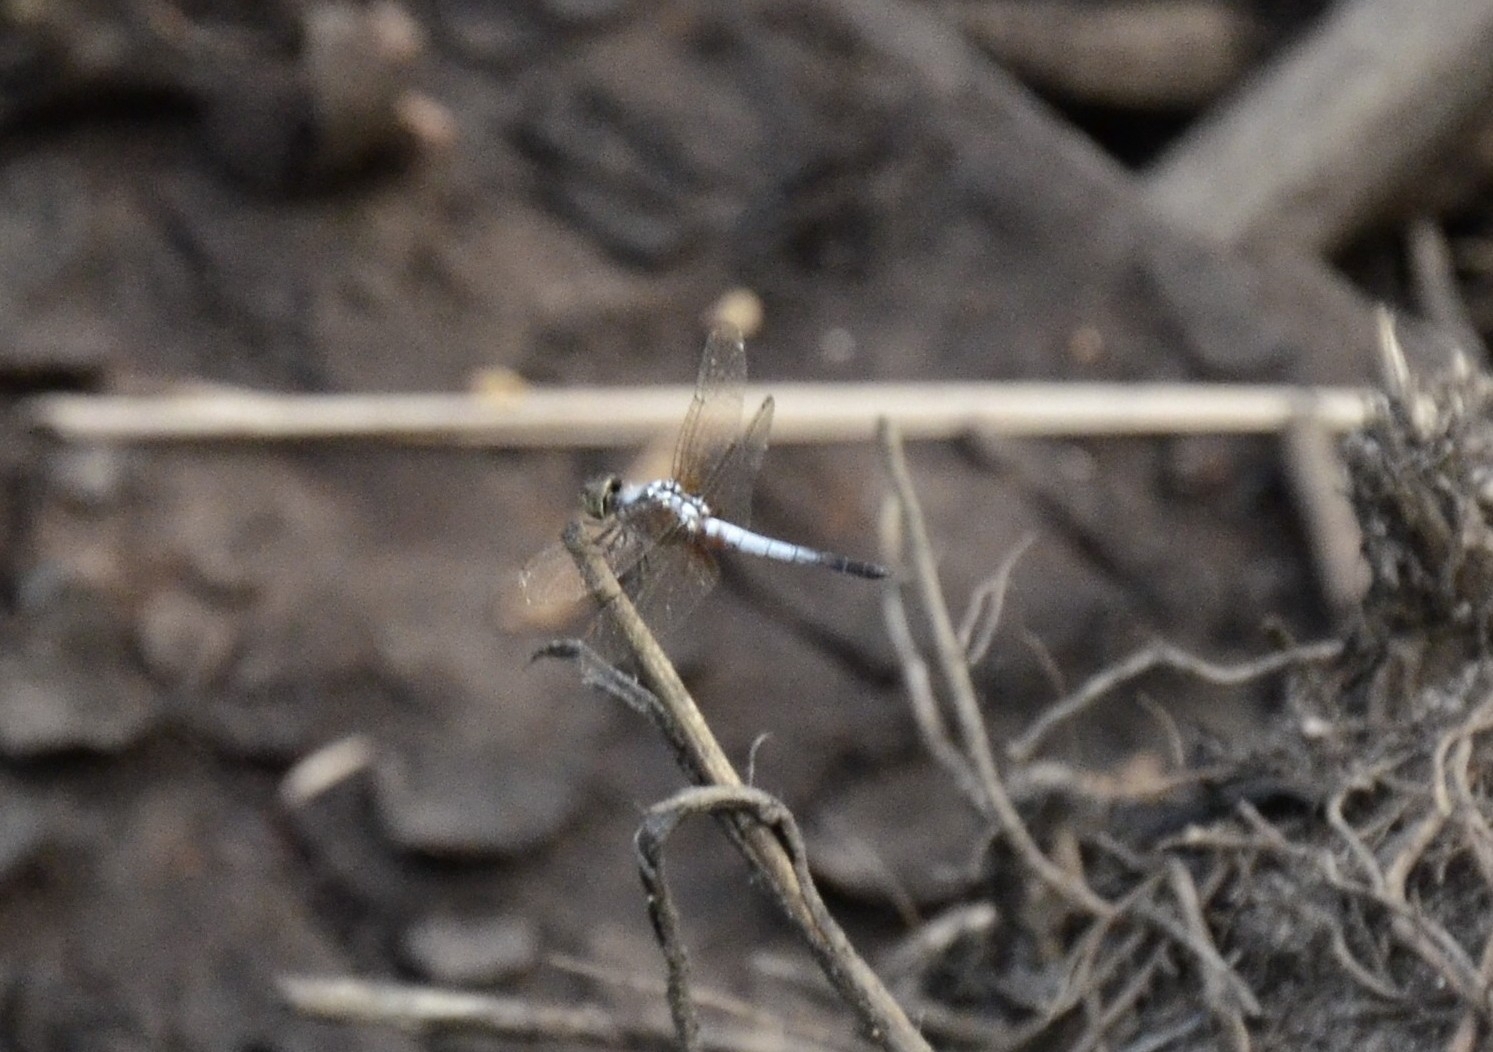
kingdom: Animalia
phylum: Arthropoda
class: Insecta
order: Odonata
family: Libellulidae
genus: Brachydiplax
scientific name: Brachydiplax chalybea
